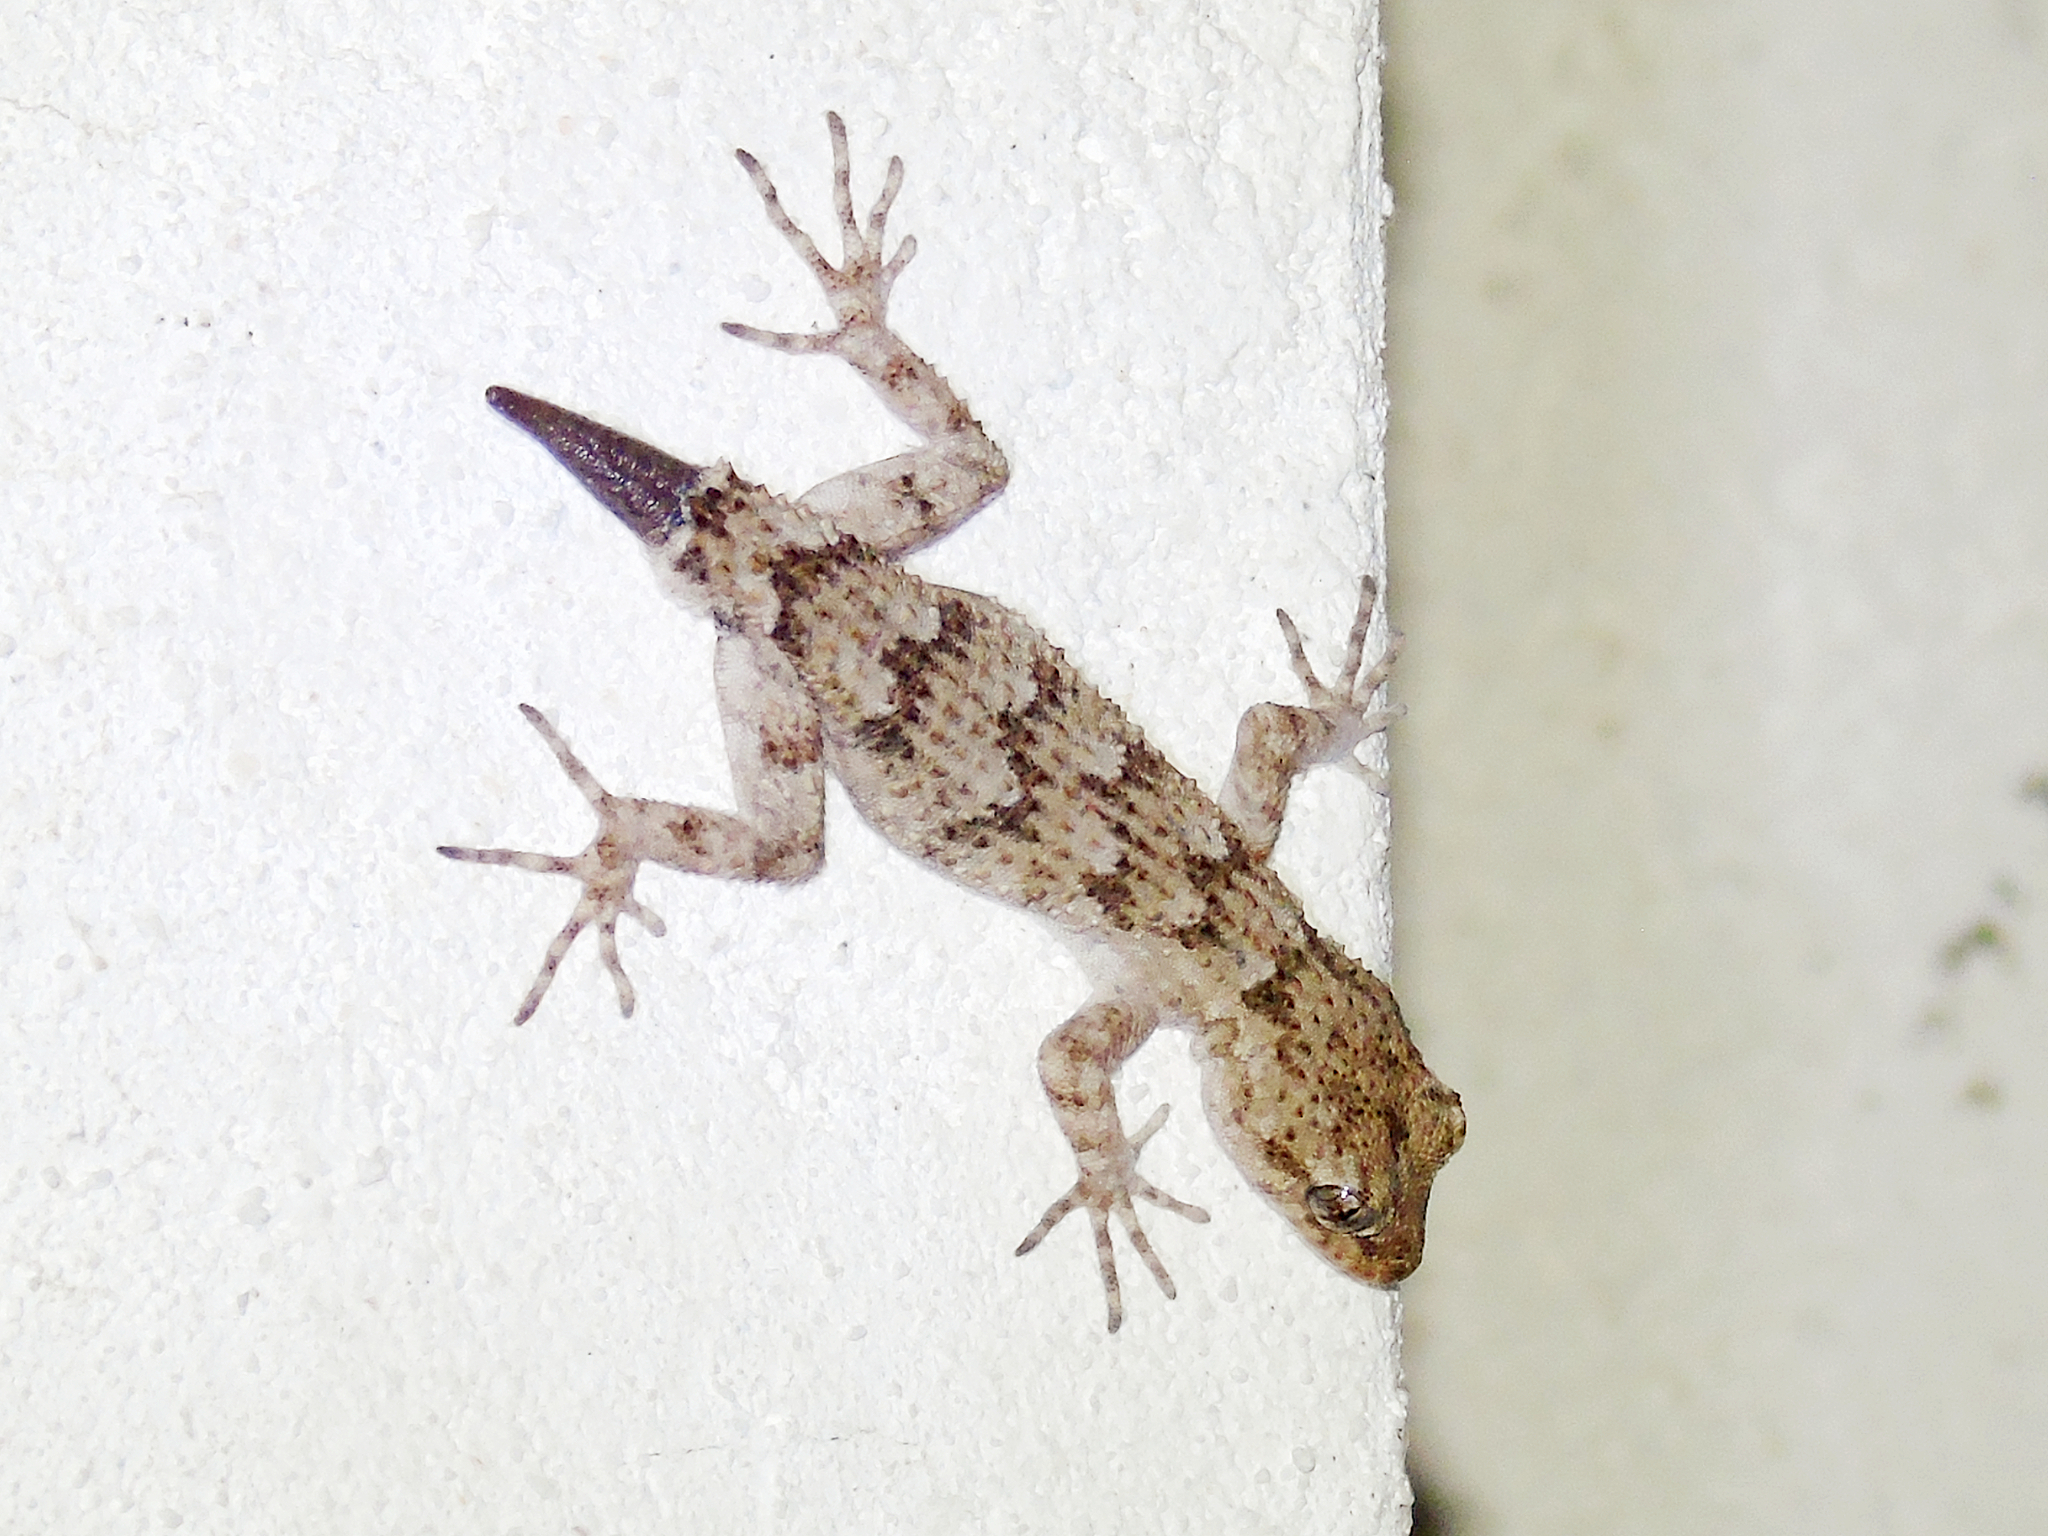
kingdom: Animalia
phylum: Chordata
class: Squamata
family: Gekkonidae
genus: Mediodactylus
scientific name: Mediodactylus kotschyi
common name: Kotschy's gecko
